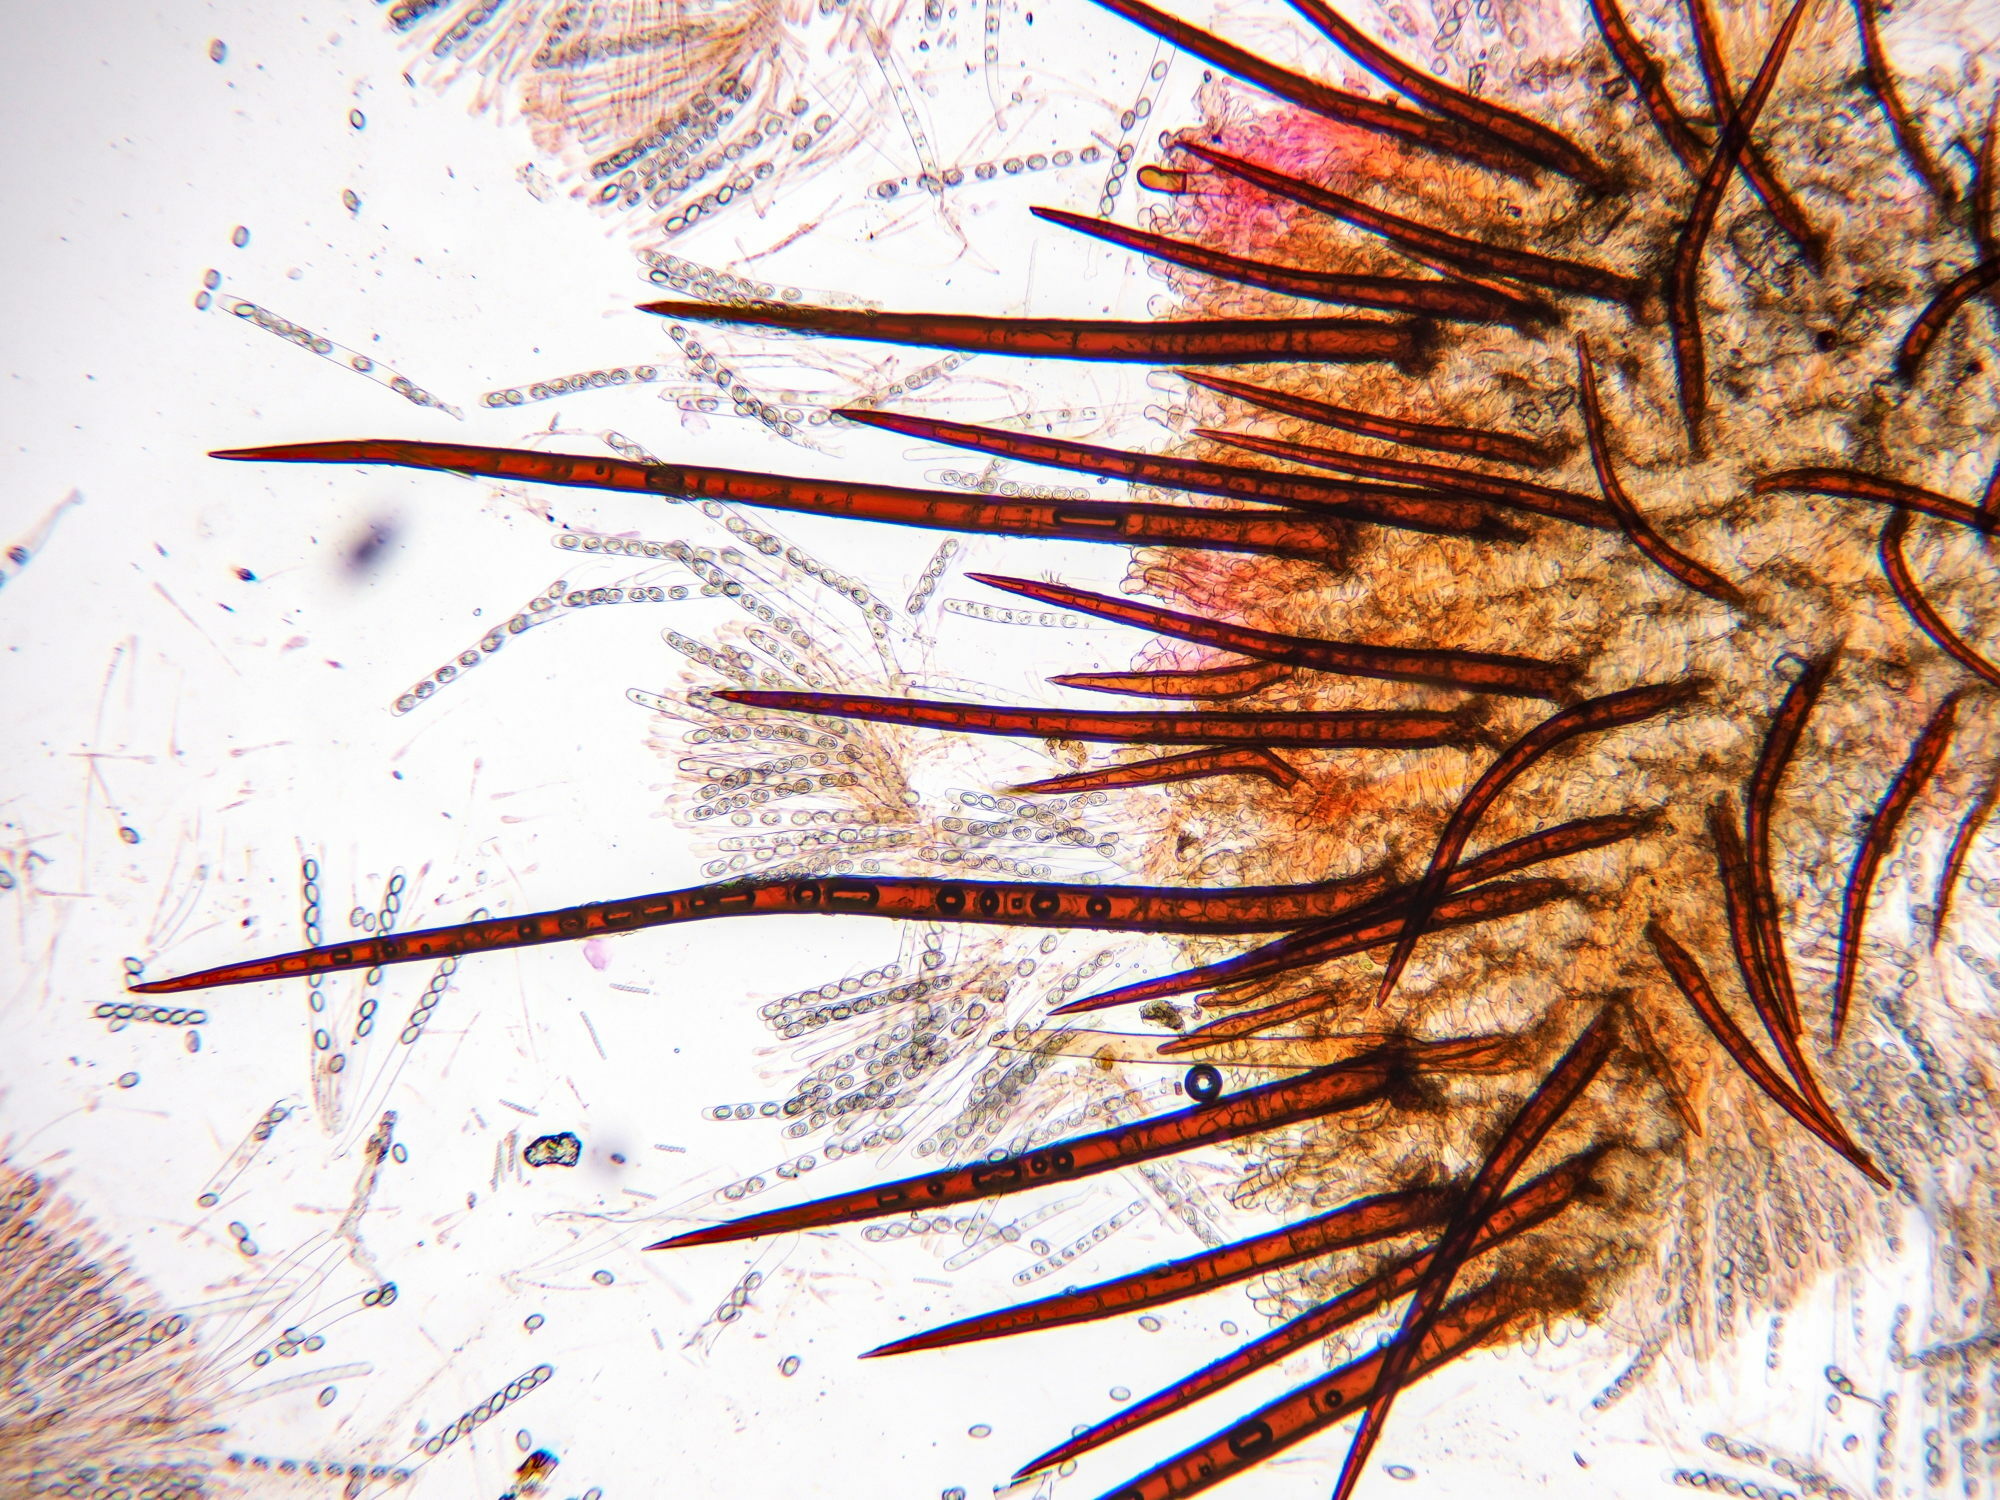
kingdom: Fungi
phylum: Ascomycota
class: Pezizomycetes
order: Pezizales
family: Pyronemataceae
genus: Scutellinia
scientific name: Scutellinia crinita
